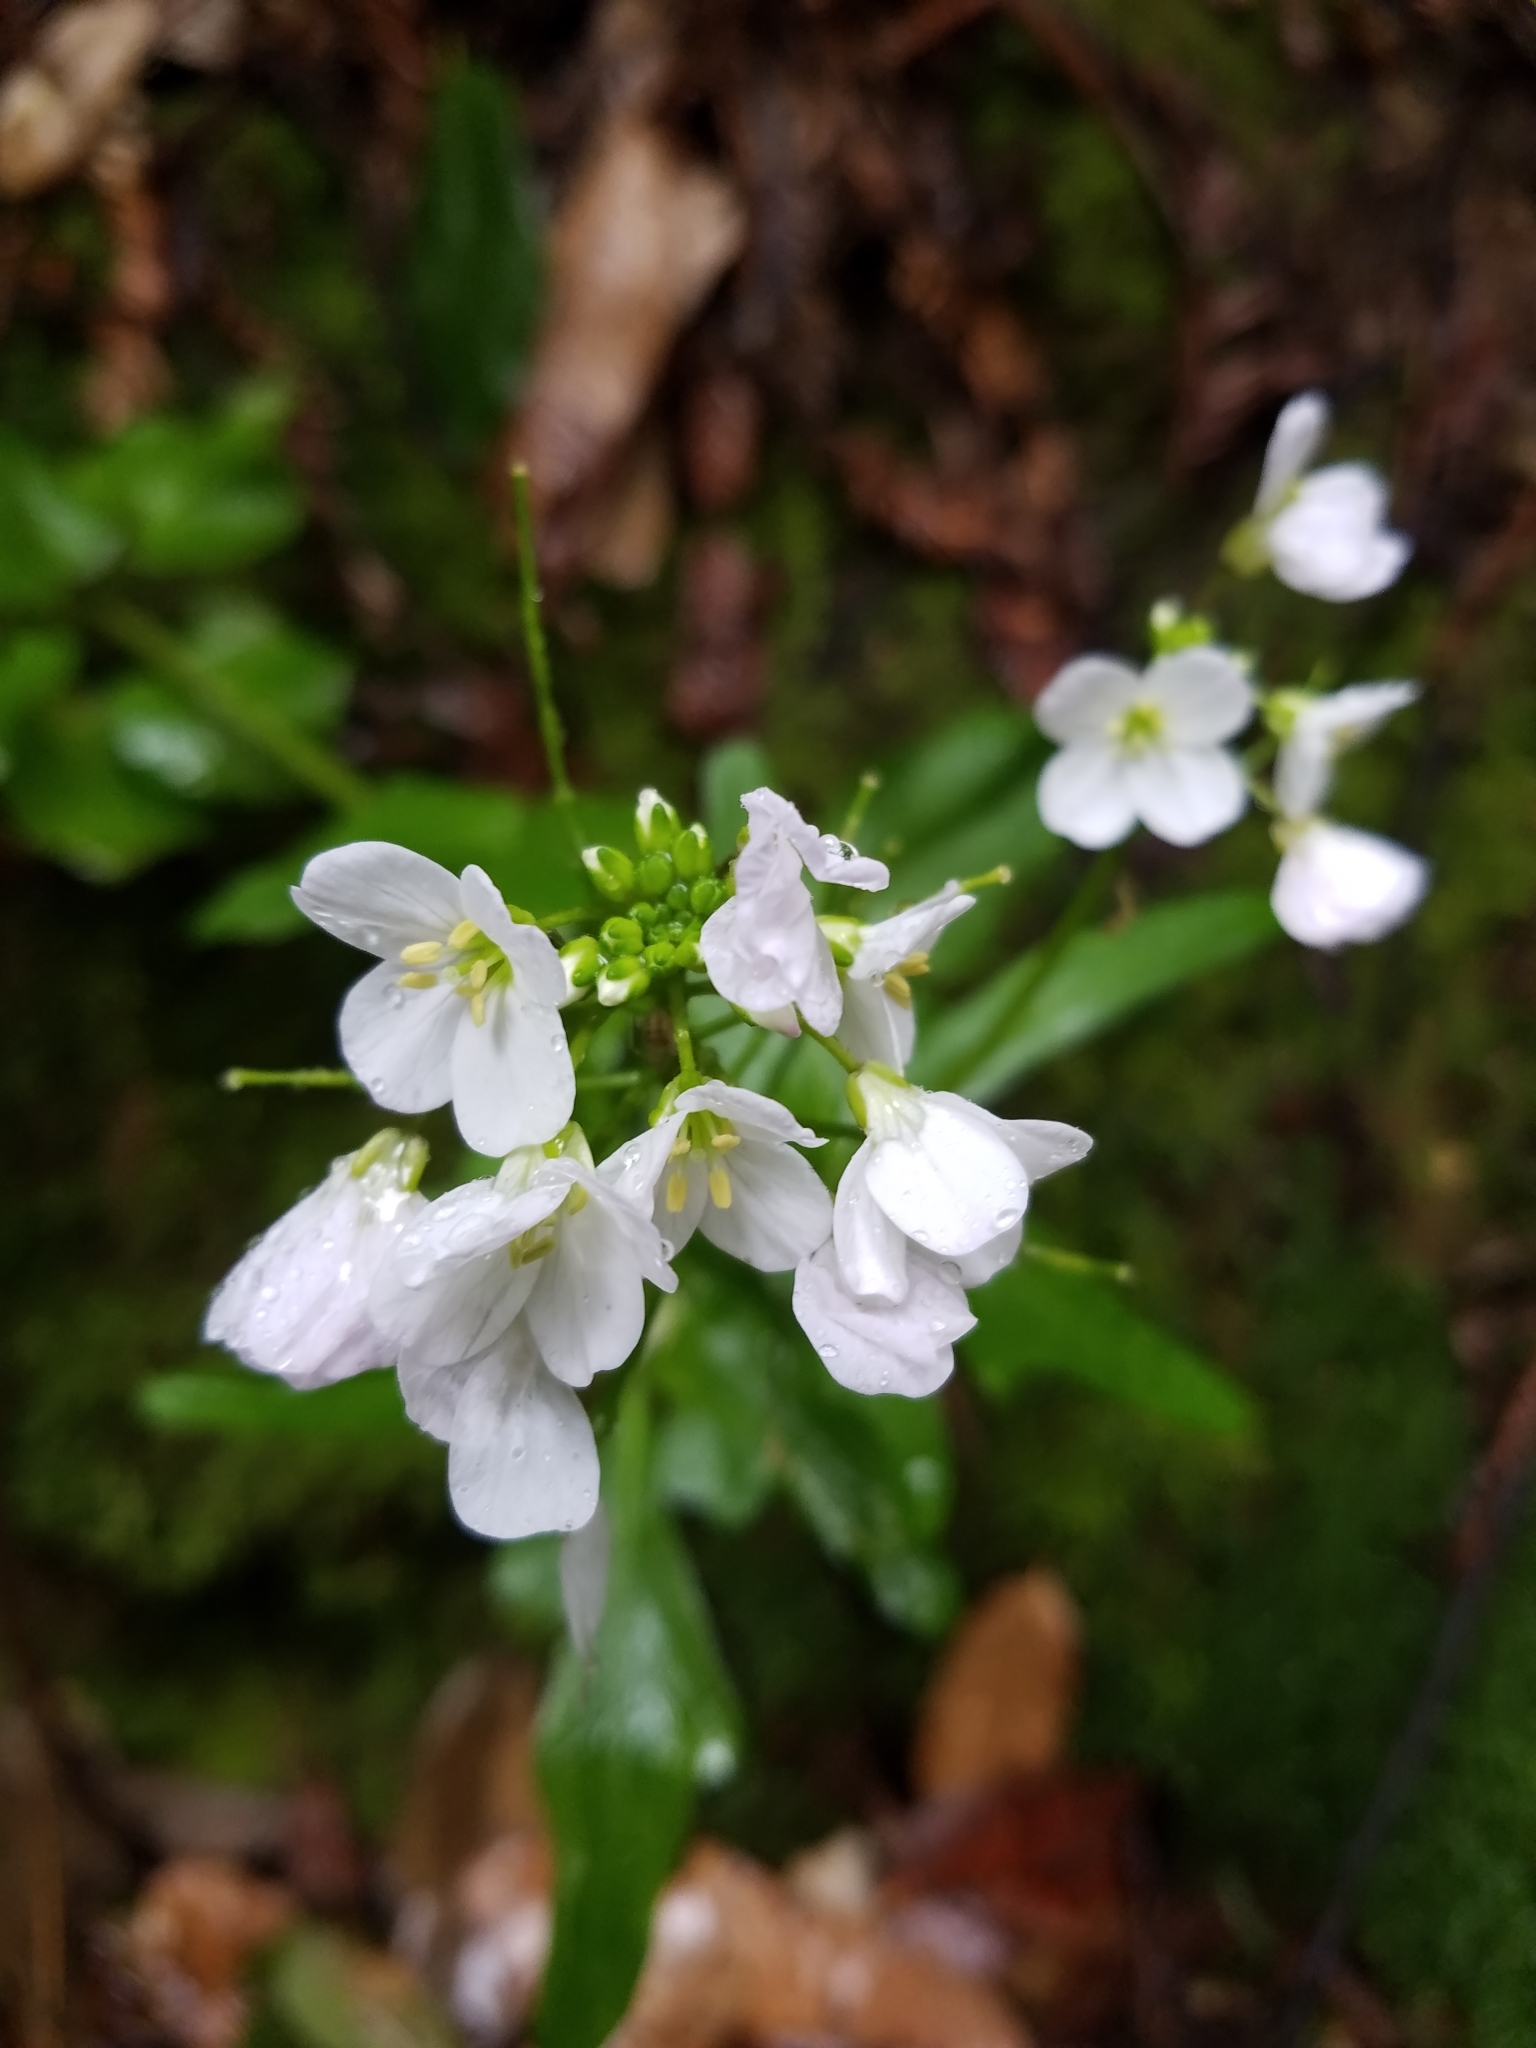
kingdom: Plantae
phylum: Tracheophyta
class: Magnoliopsida
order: Brassicales
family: Brassicaceae
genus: Cardamine
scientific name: Cardamine californica
